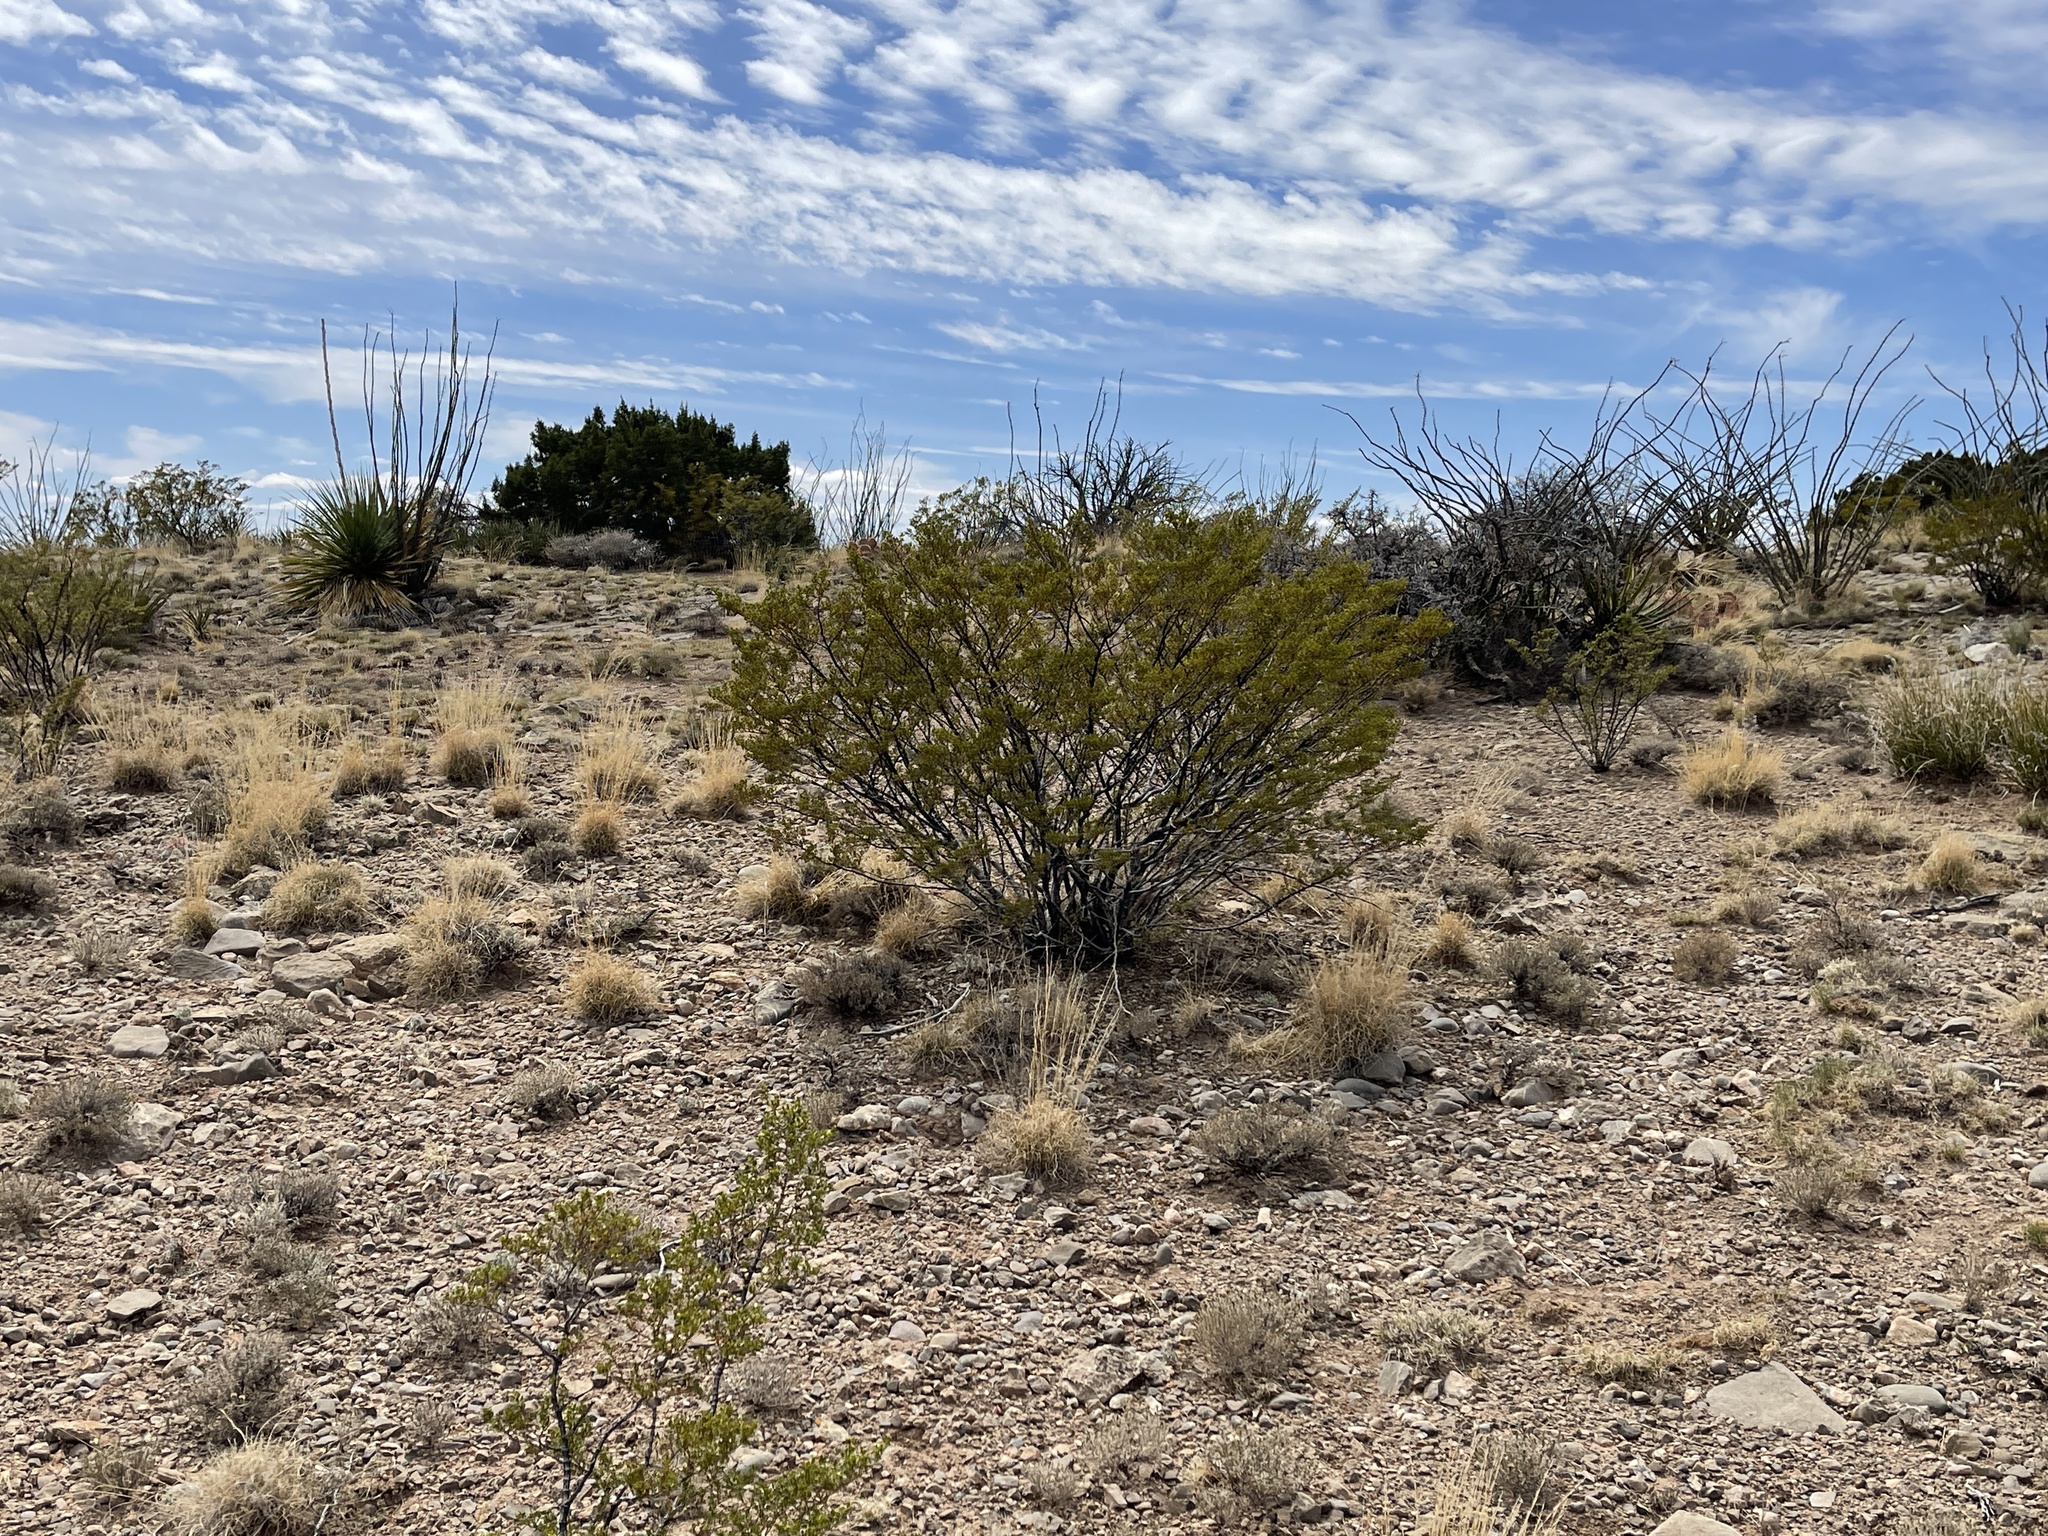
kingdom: Plantae
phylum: Tracheophyta
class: Magnoliopsida
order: Zygophyllales
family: Zygophyllaceae
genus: Larrea
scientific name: Larrea tridentata
